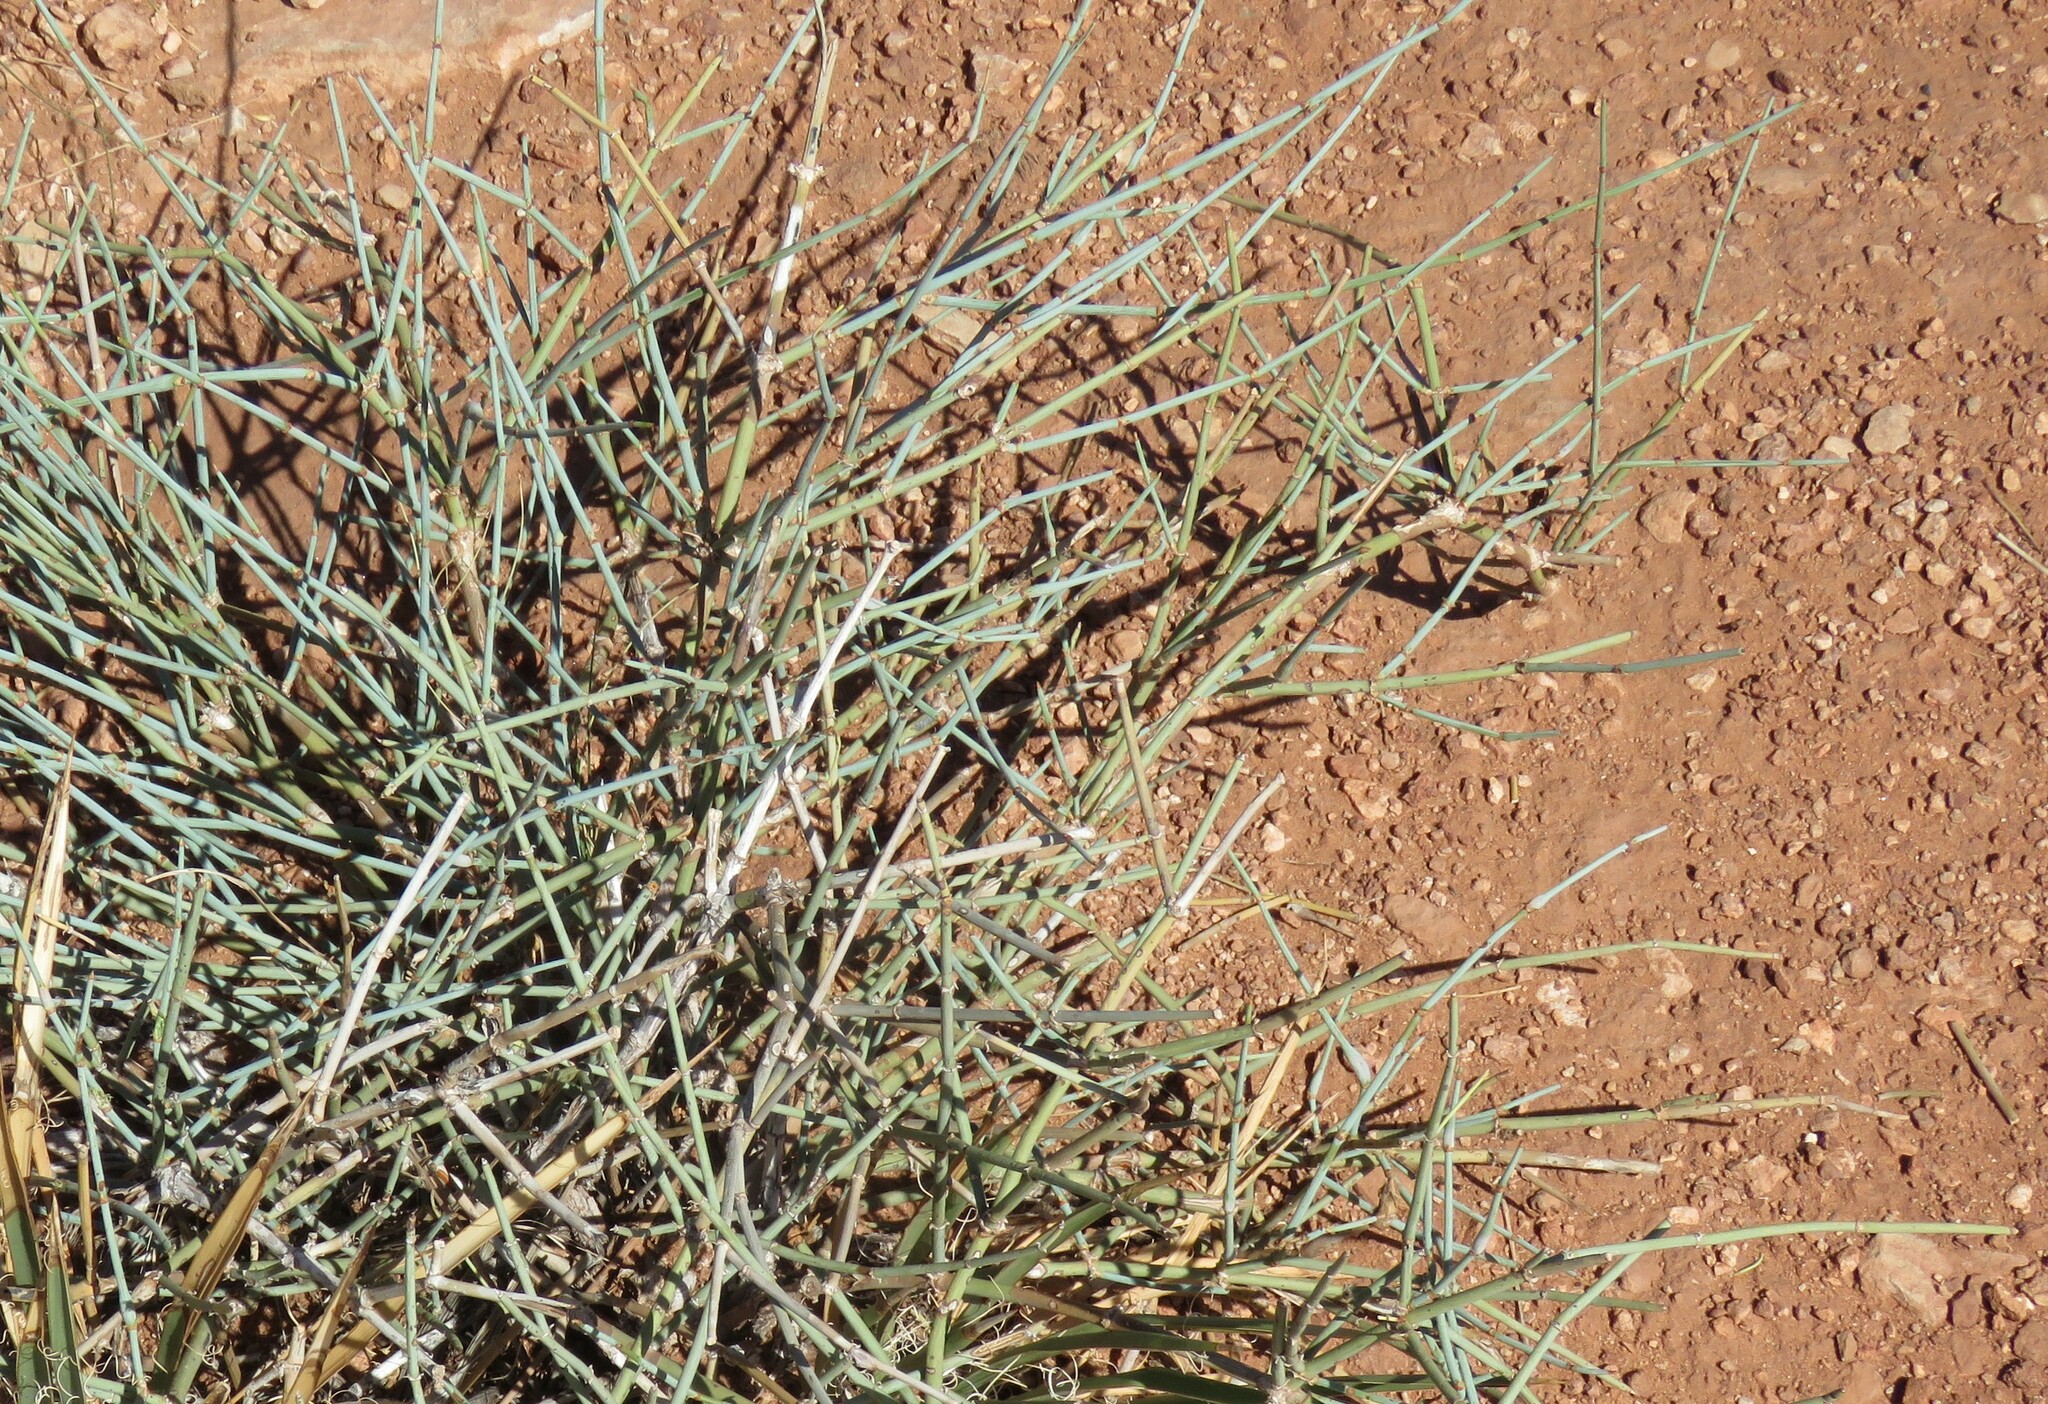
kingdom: Plantae
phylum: Tracheophyta
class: Gnetopsida
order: Ephedrales
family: Ephedraceae
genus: Ephedra
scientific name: Ephedra torreyana
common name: Torrey ephedra
